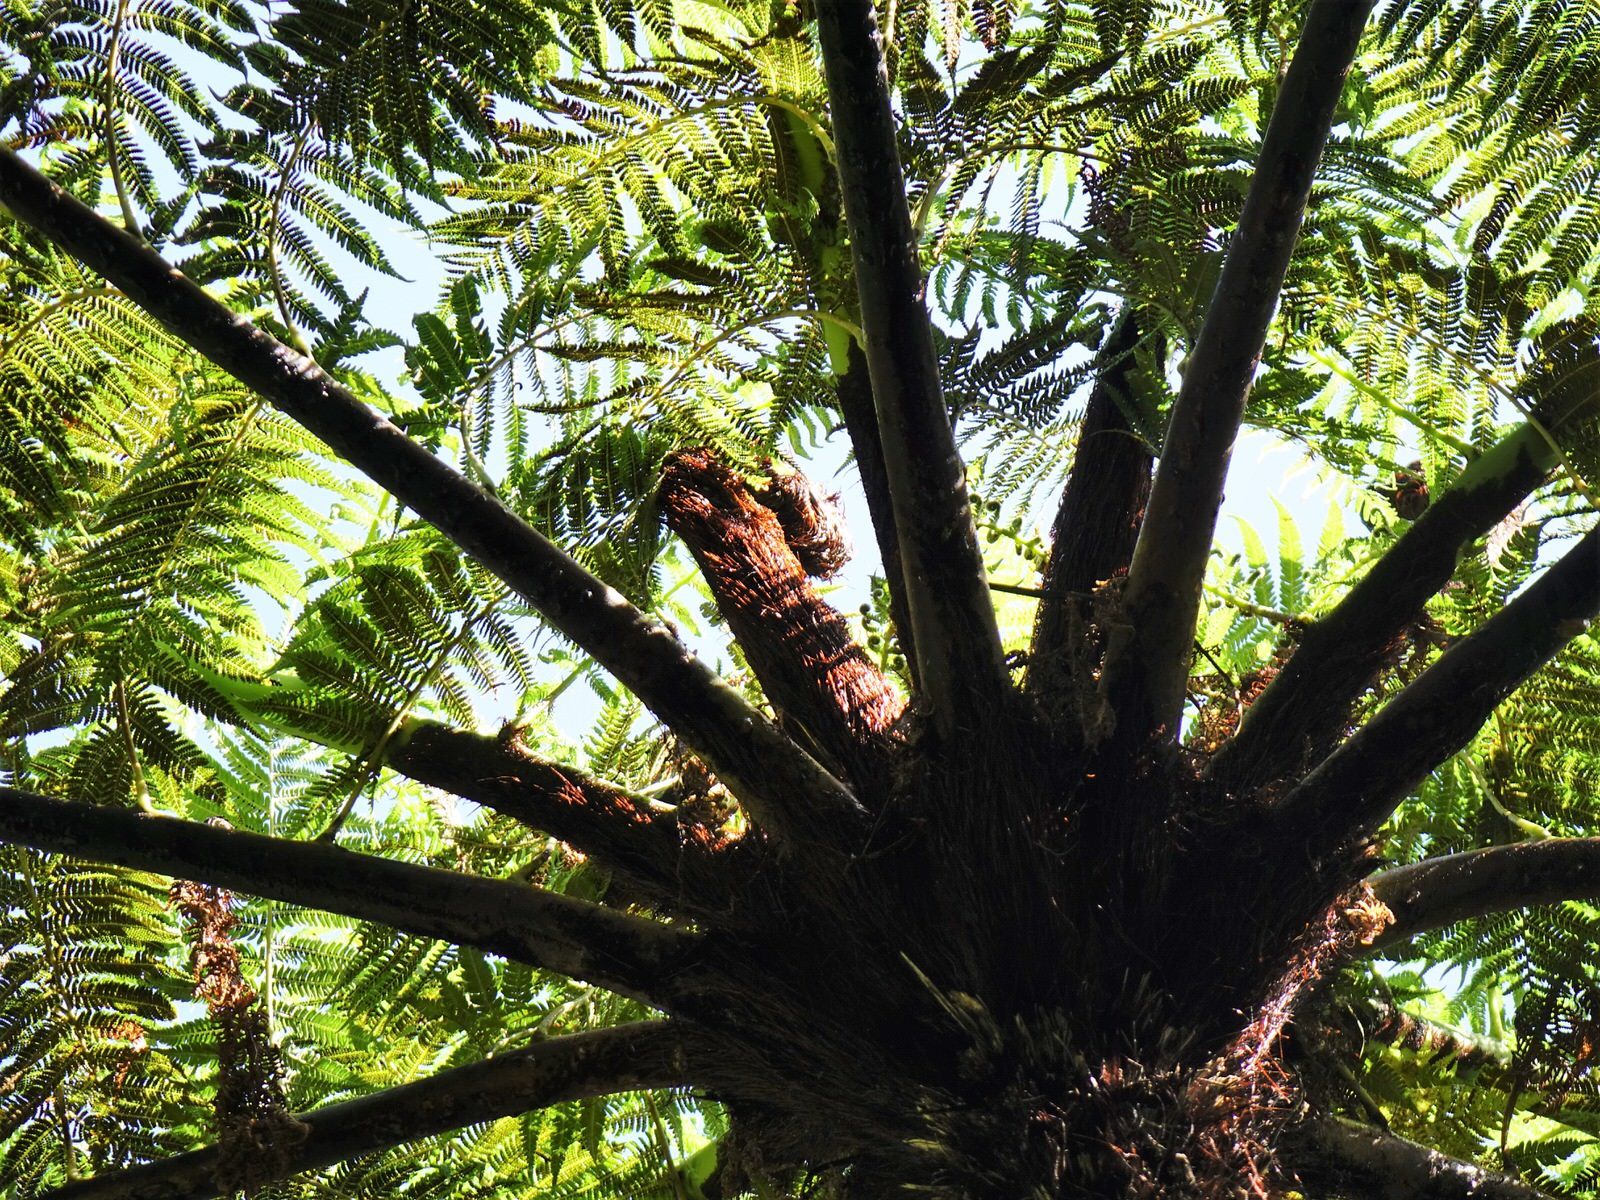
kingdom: Plantae
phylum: Tracheophyta
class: Polypodiopsida
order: Cyatheales
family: Cyatheaceae
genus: Sphaeropteris
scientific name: Sphaeropteris medullaris
